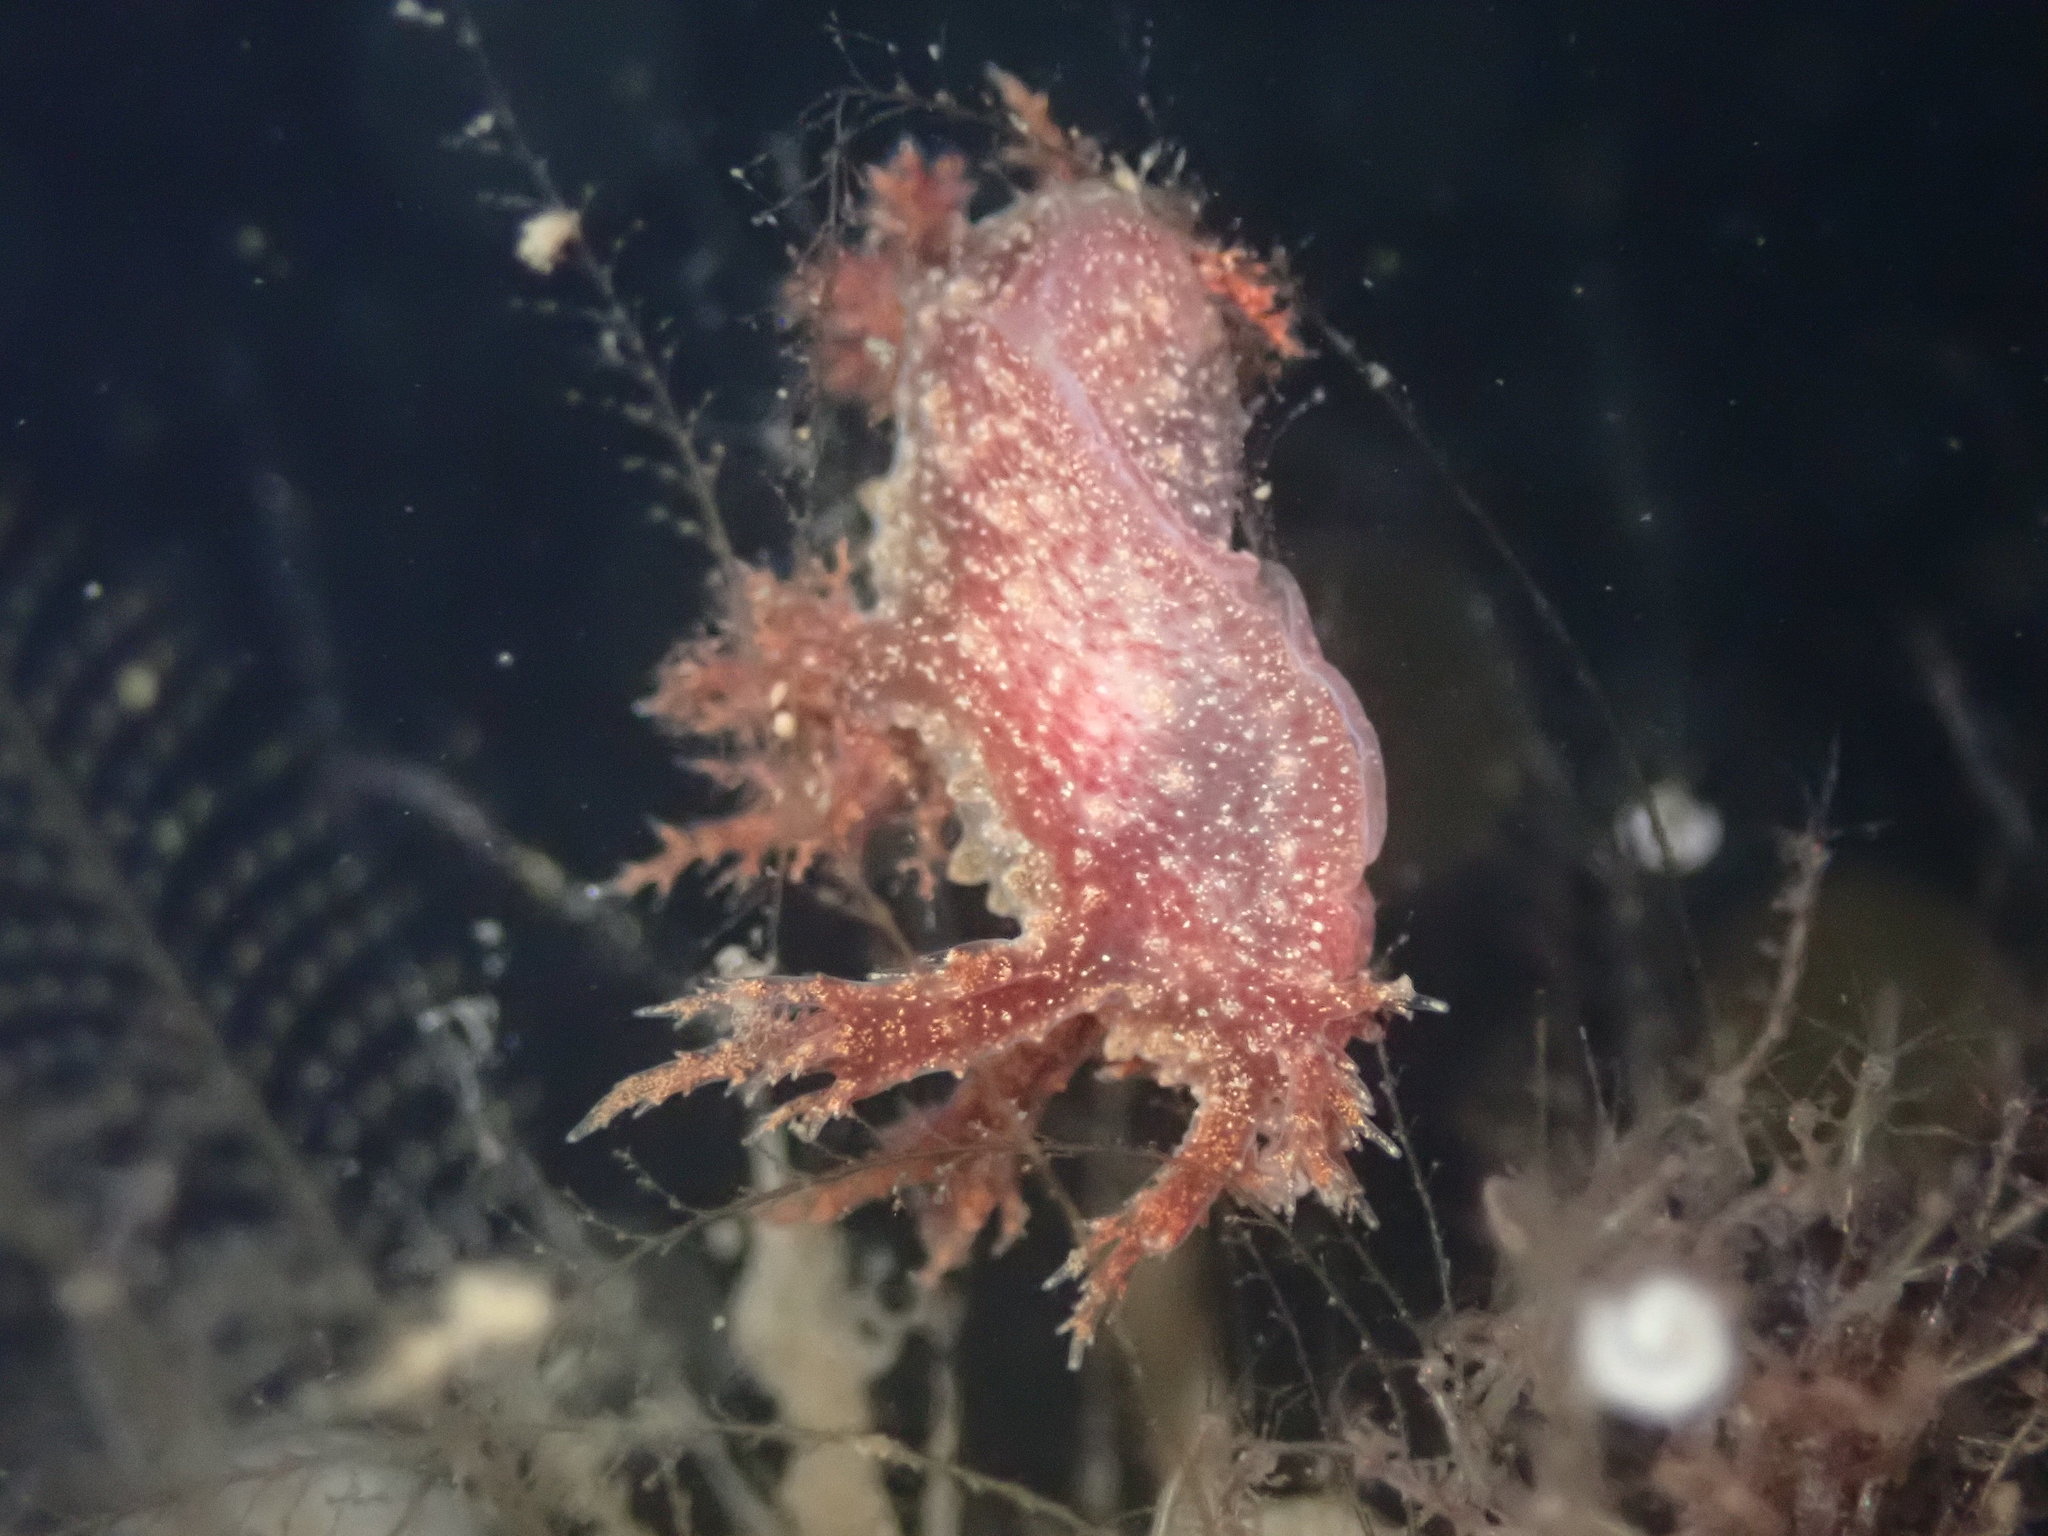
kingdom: Animalia
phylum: Mollusca
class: Gastropoda
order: Nudibranchia
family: Dendronotidae
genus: Dendronotus
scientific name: Dendronotus venustus
